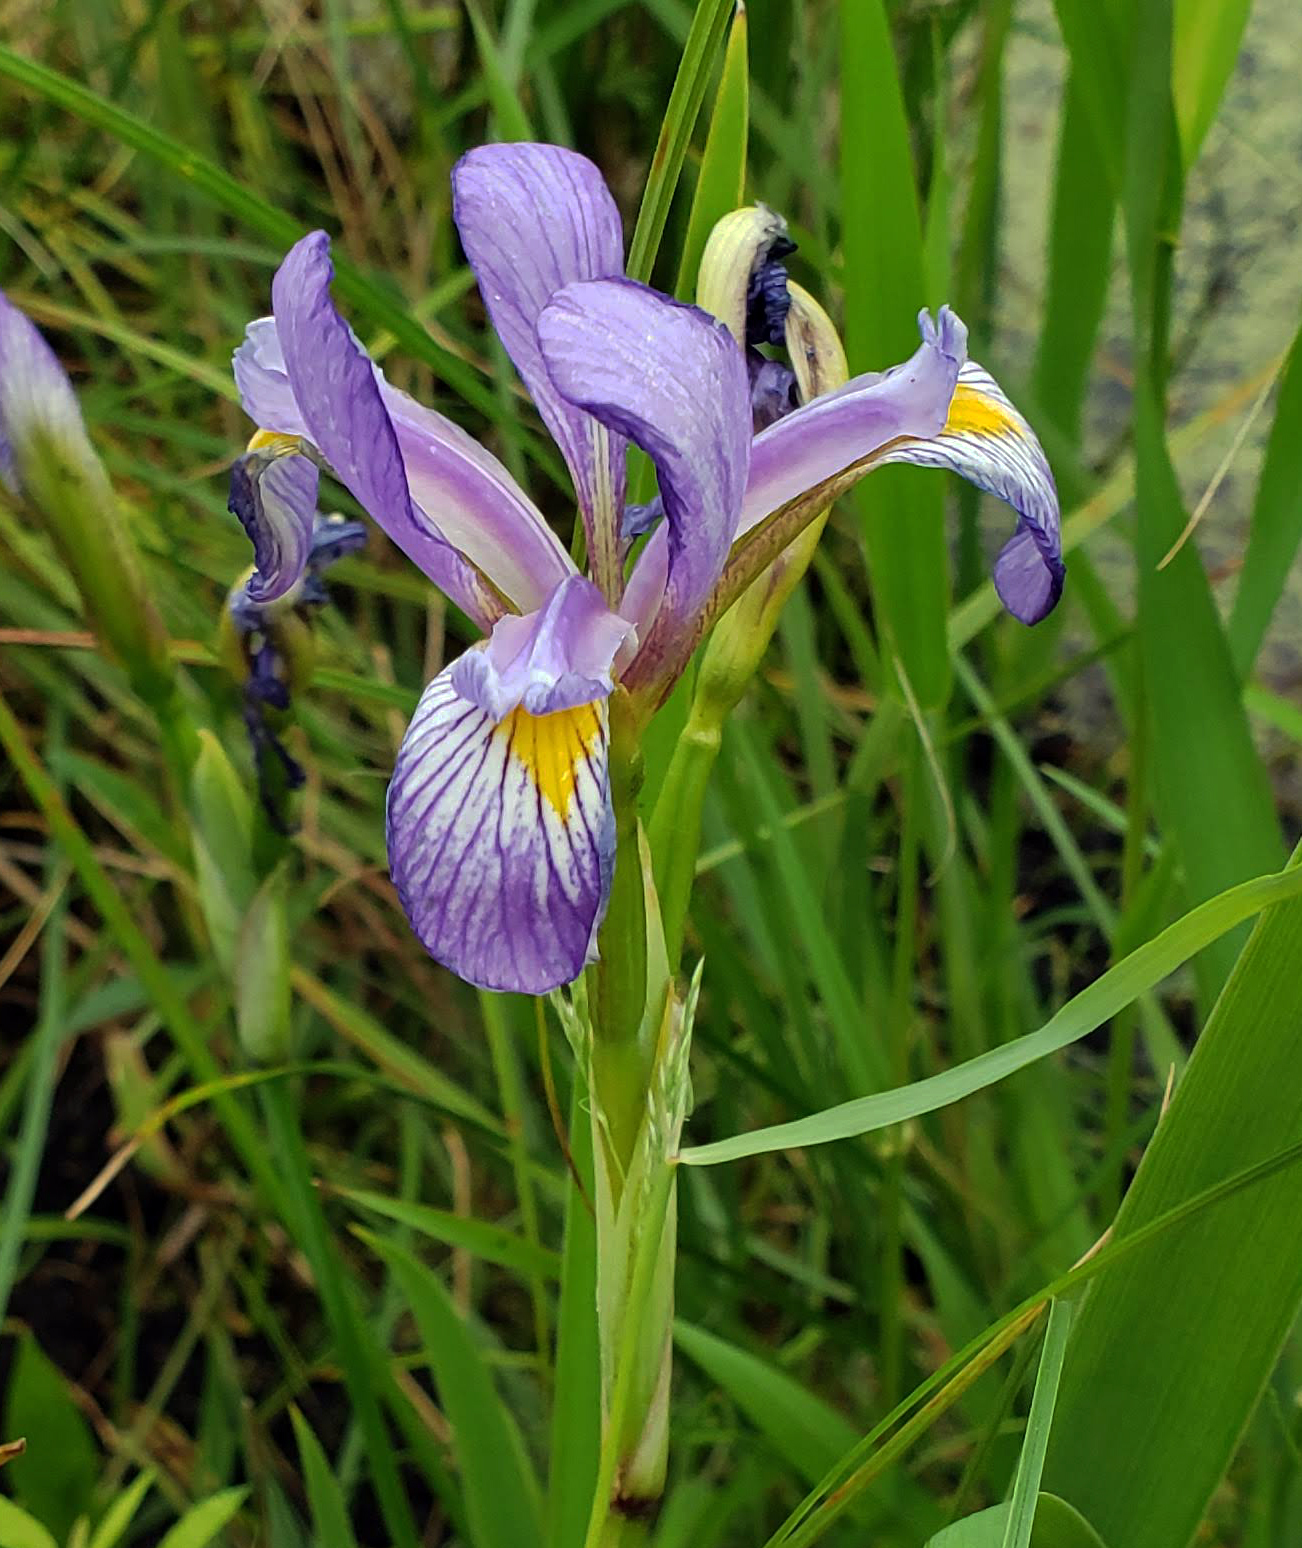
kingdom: Plantae
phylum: Tracheophyta
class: Liliopsida
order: Asparagales
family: Iridaceae
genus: Iris
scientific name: Iris virginica
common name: Southern blue flag
